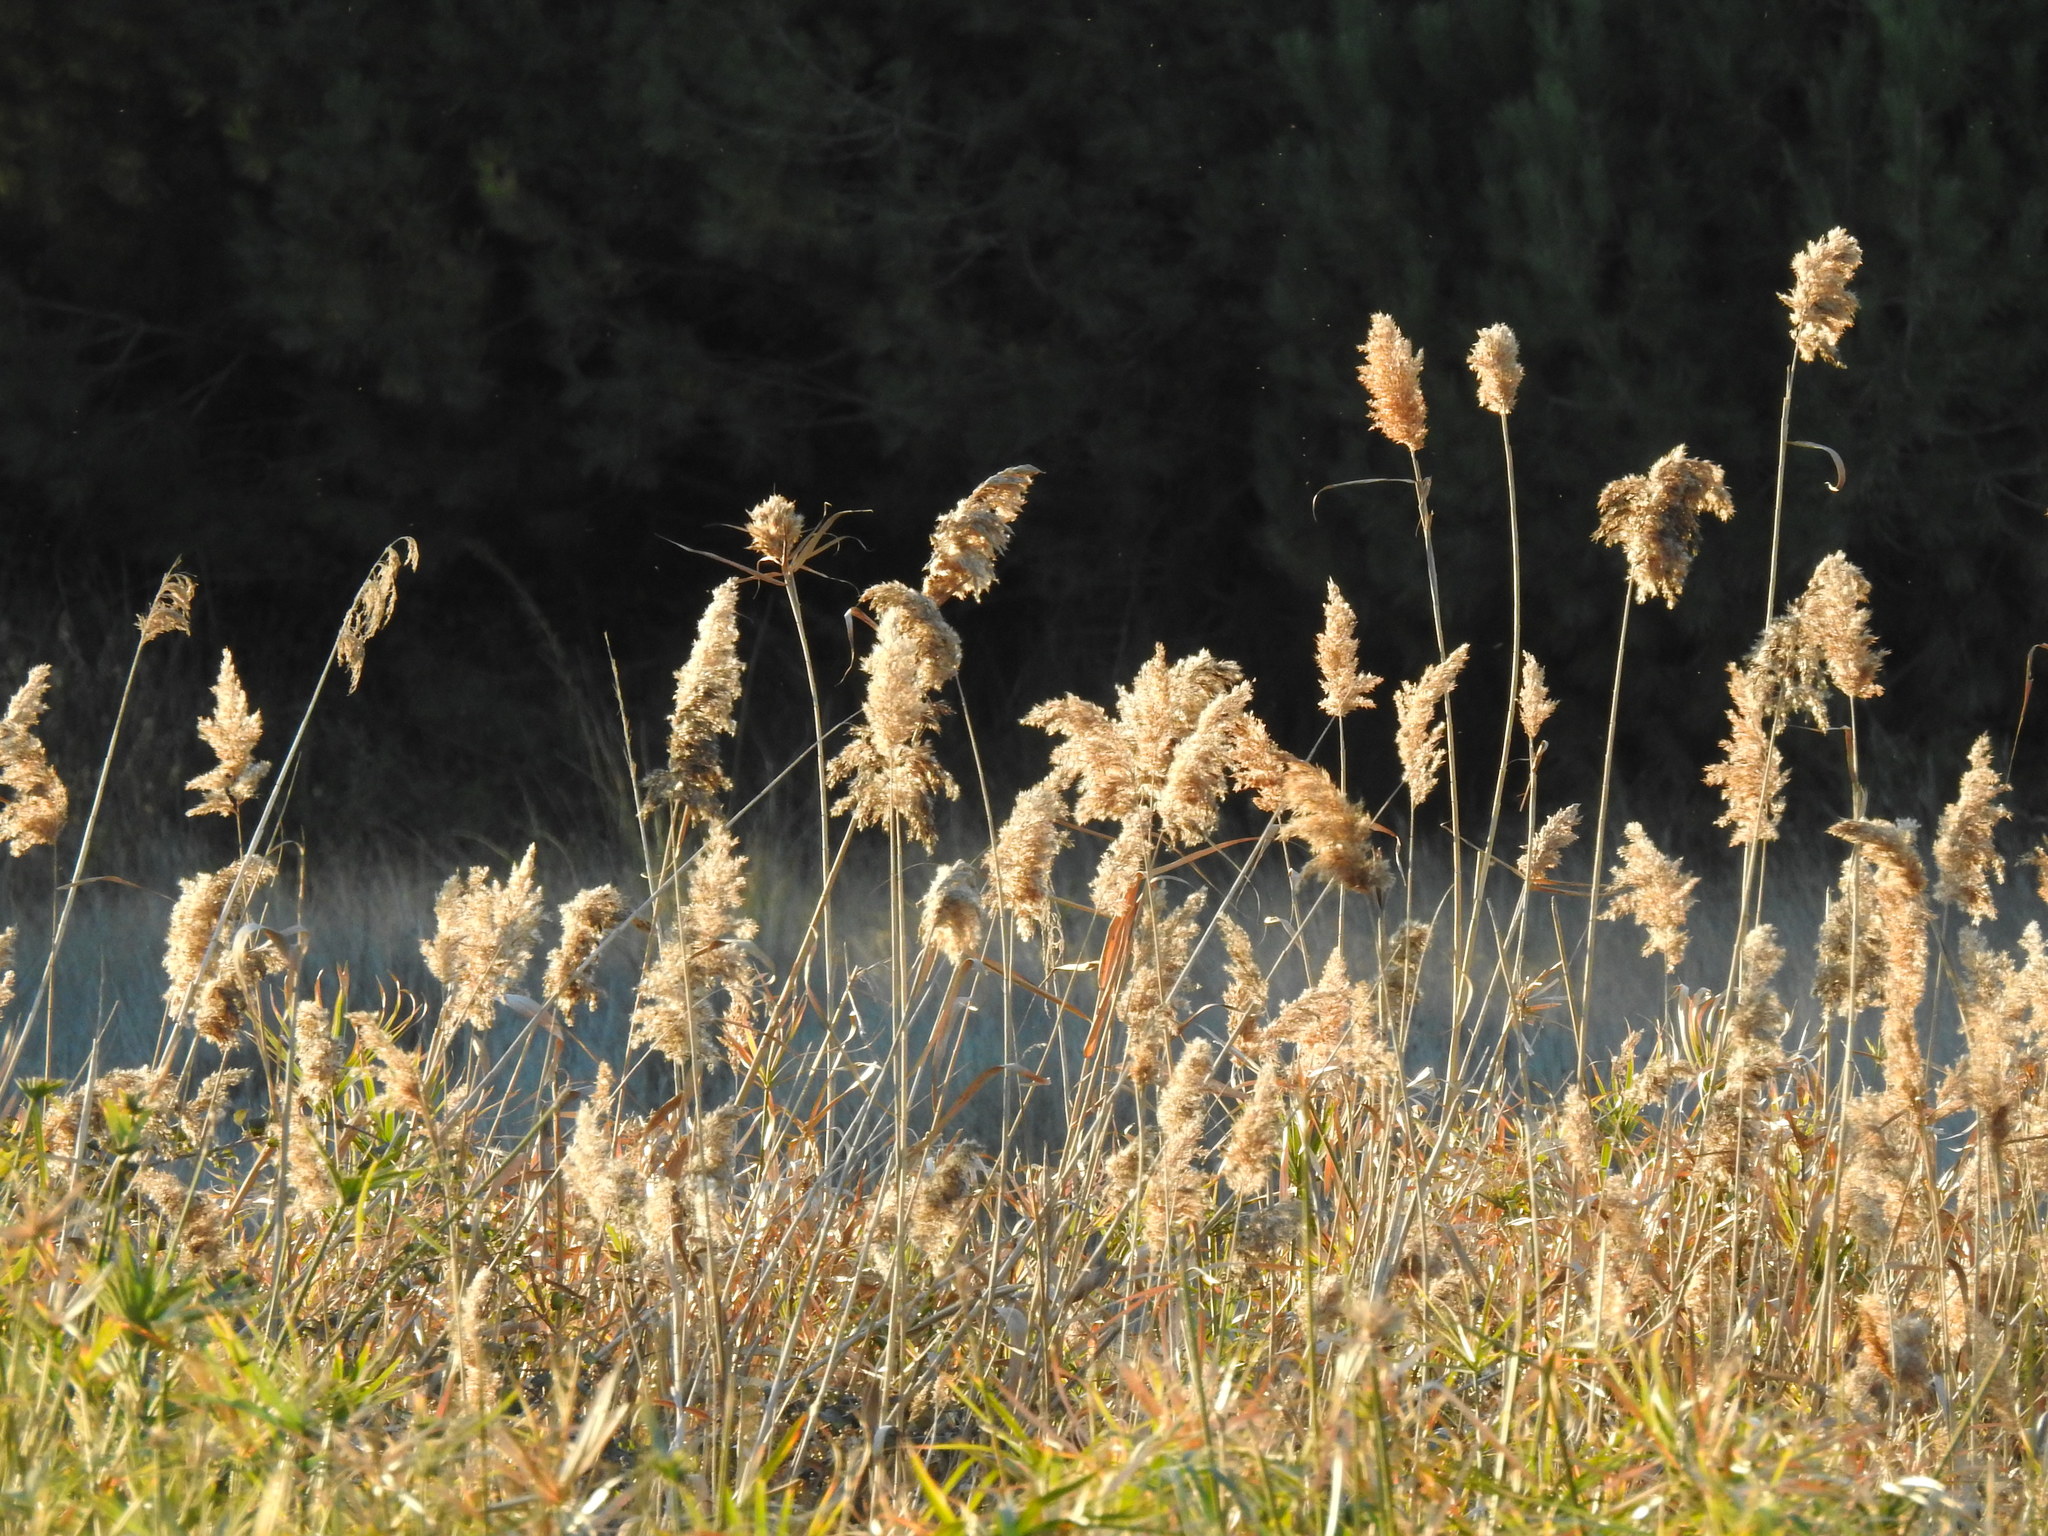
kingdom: Plantae
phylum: Tracheophyta
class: Liliopsida
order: Poales
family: Poaceae
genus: Phragmites
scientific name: Phragmites australis
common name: Common reed
